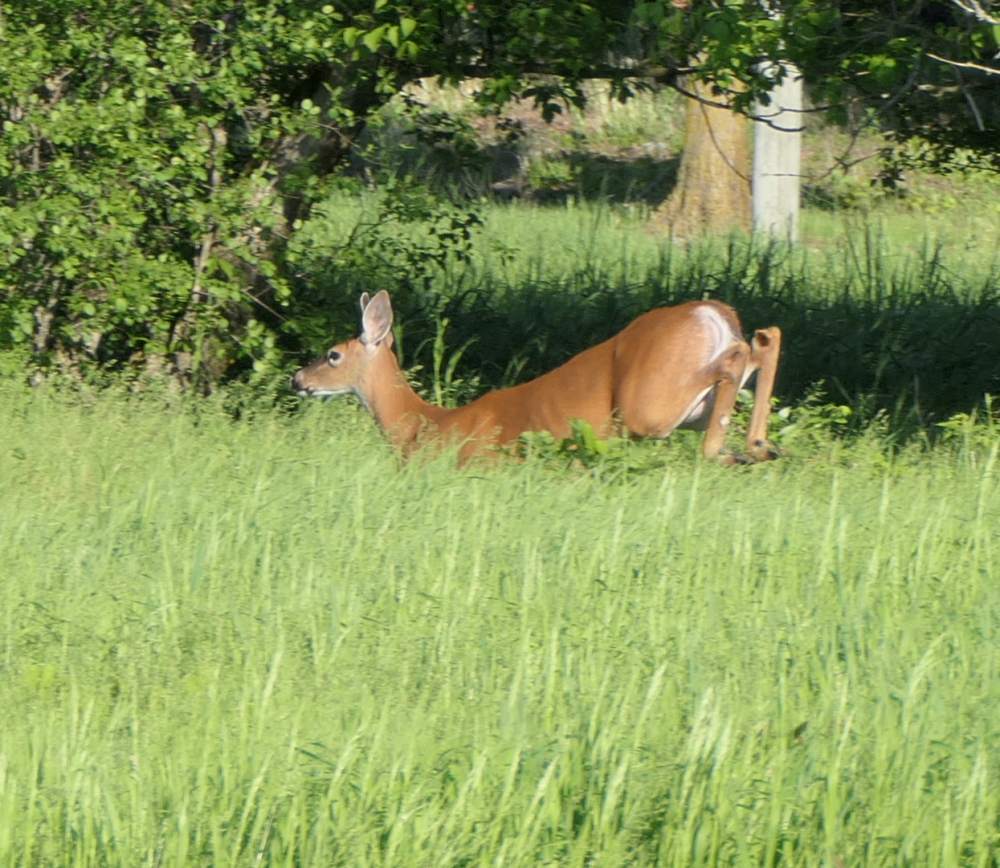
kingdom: Animalia
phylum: Chordata
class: Mammalia
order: Artiodactyla
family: Cervidae
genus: Odocoileus
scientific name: Odocoileus virginianus
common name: White-tailed deer
